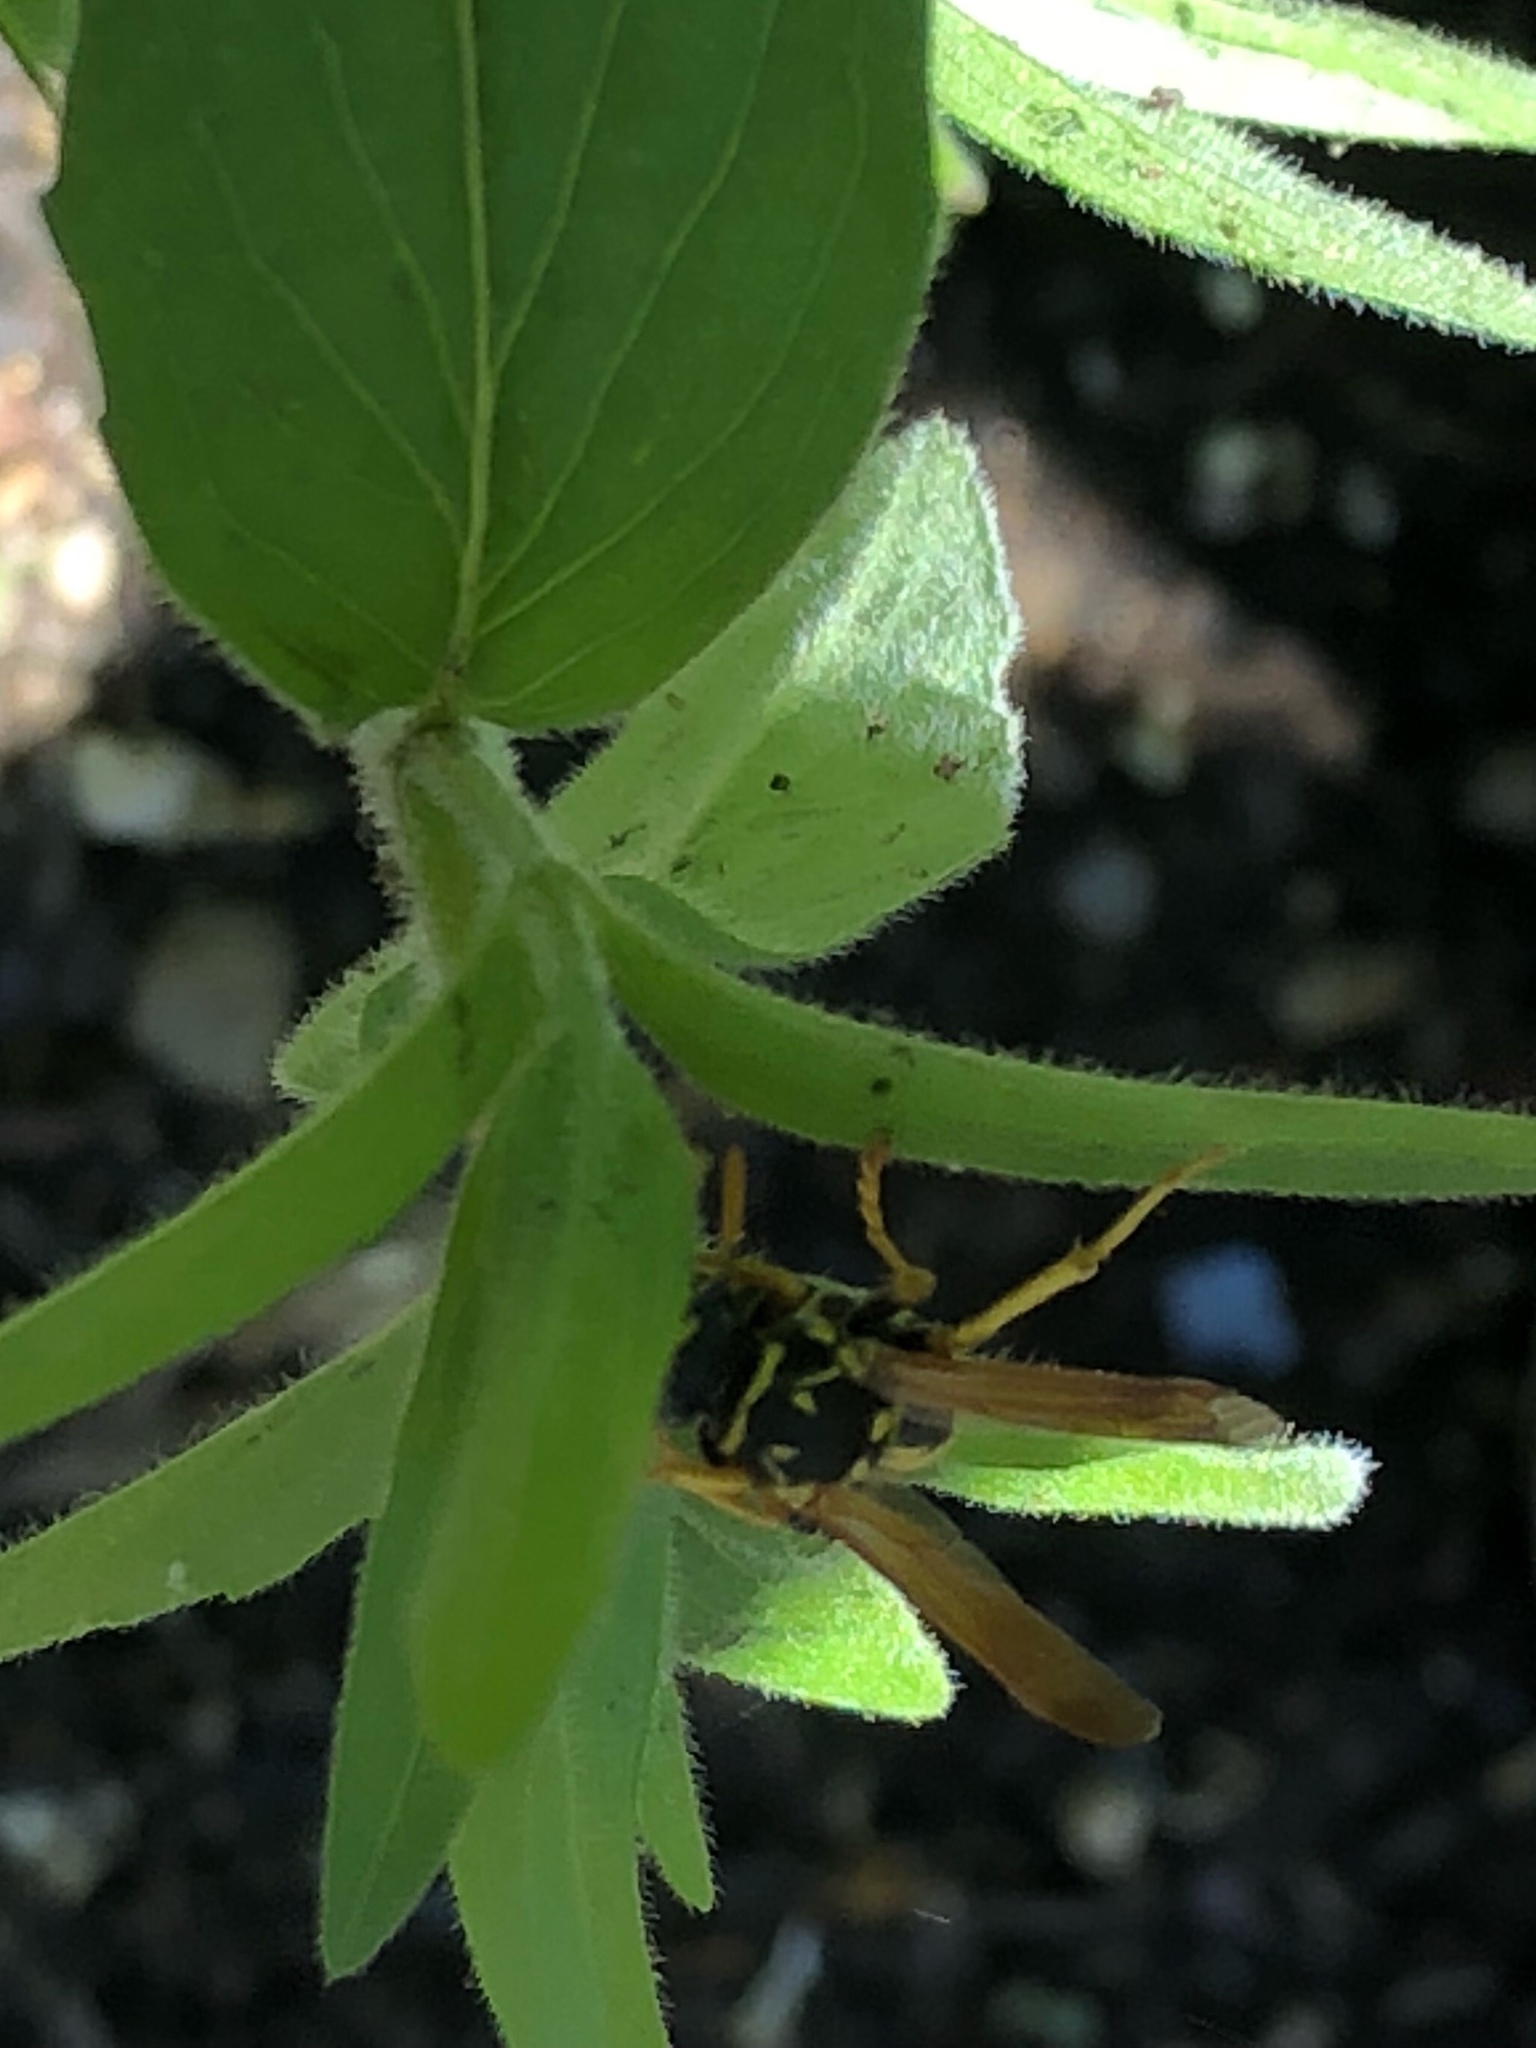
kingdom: Animalia
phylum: Arthropoda
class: Insecta
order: Hymenoptera
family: Eumenidae
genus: Polistes
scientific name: Polistes dominula
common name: Paper wasp
